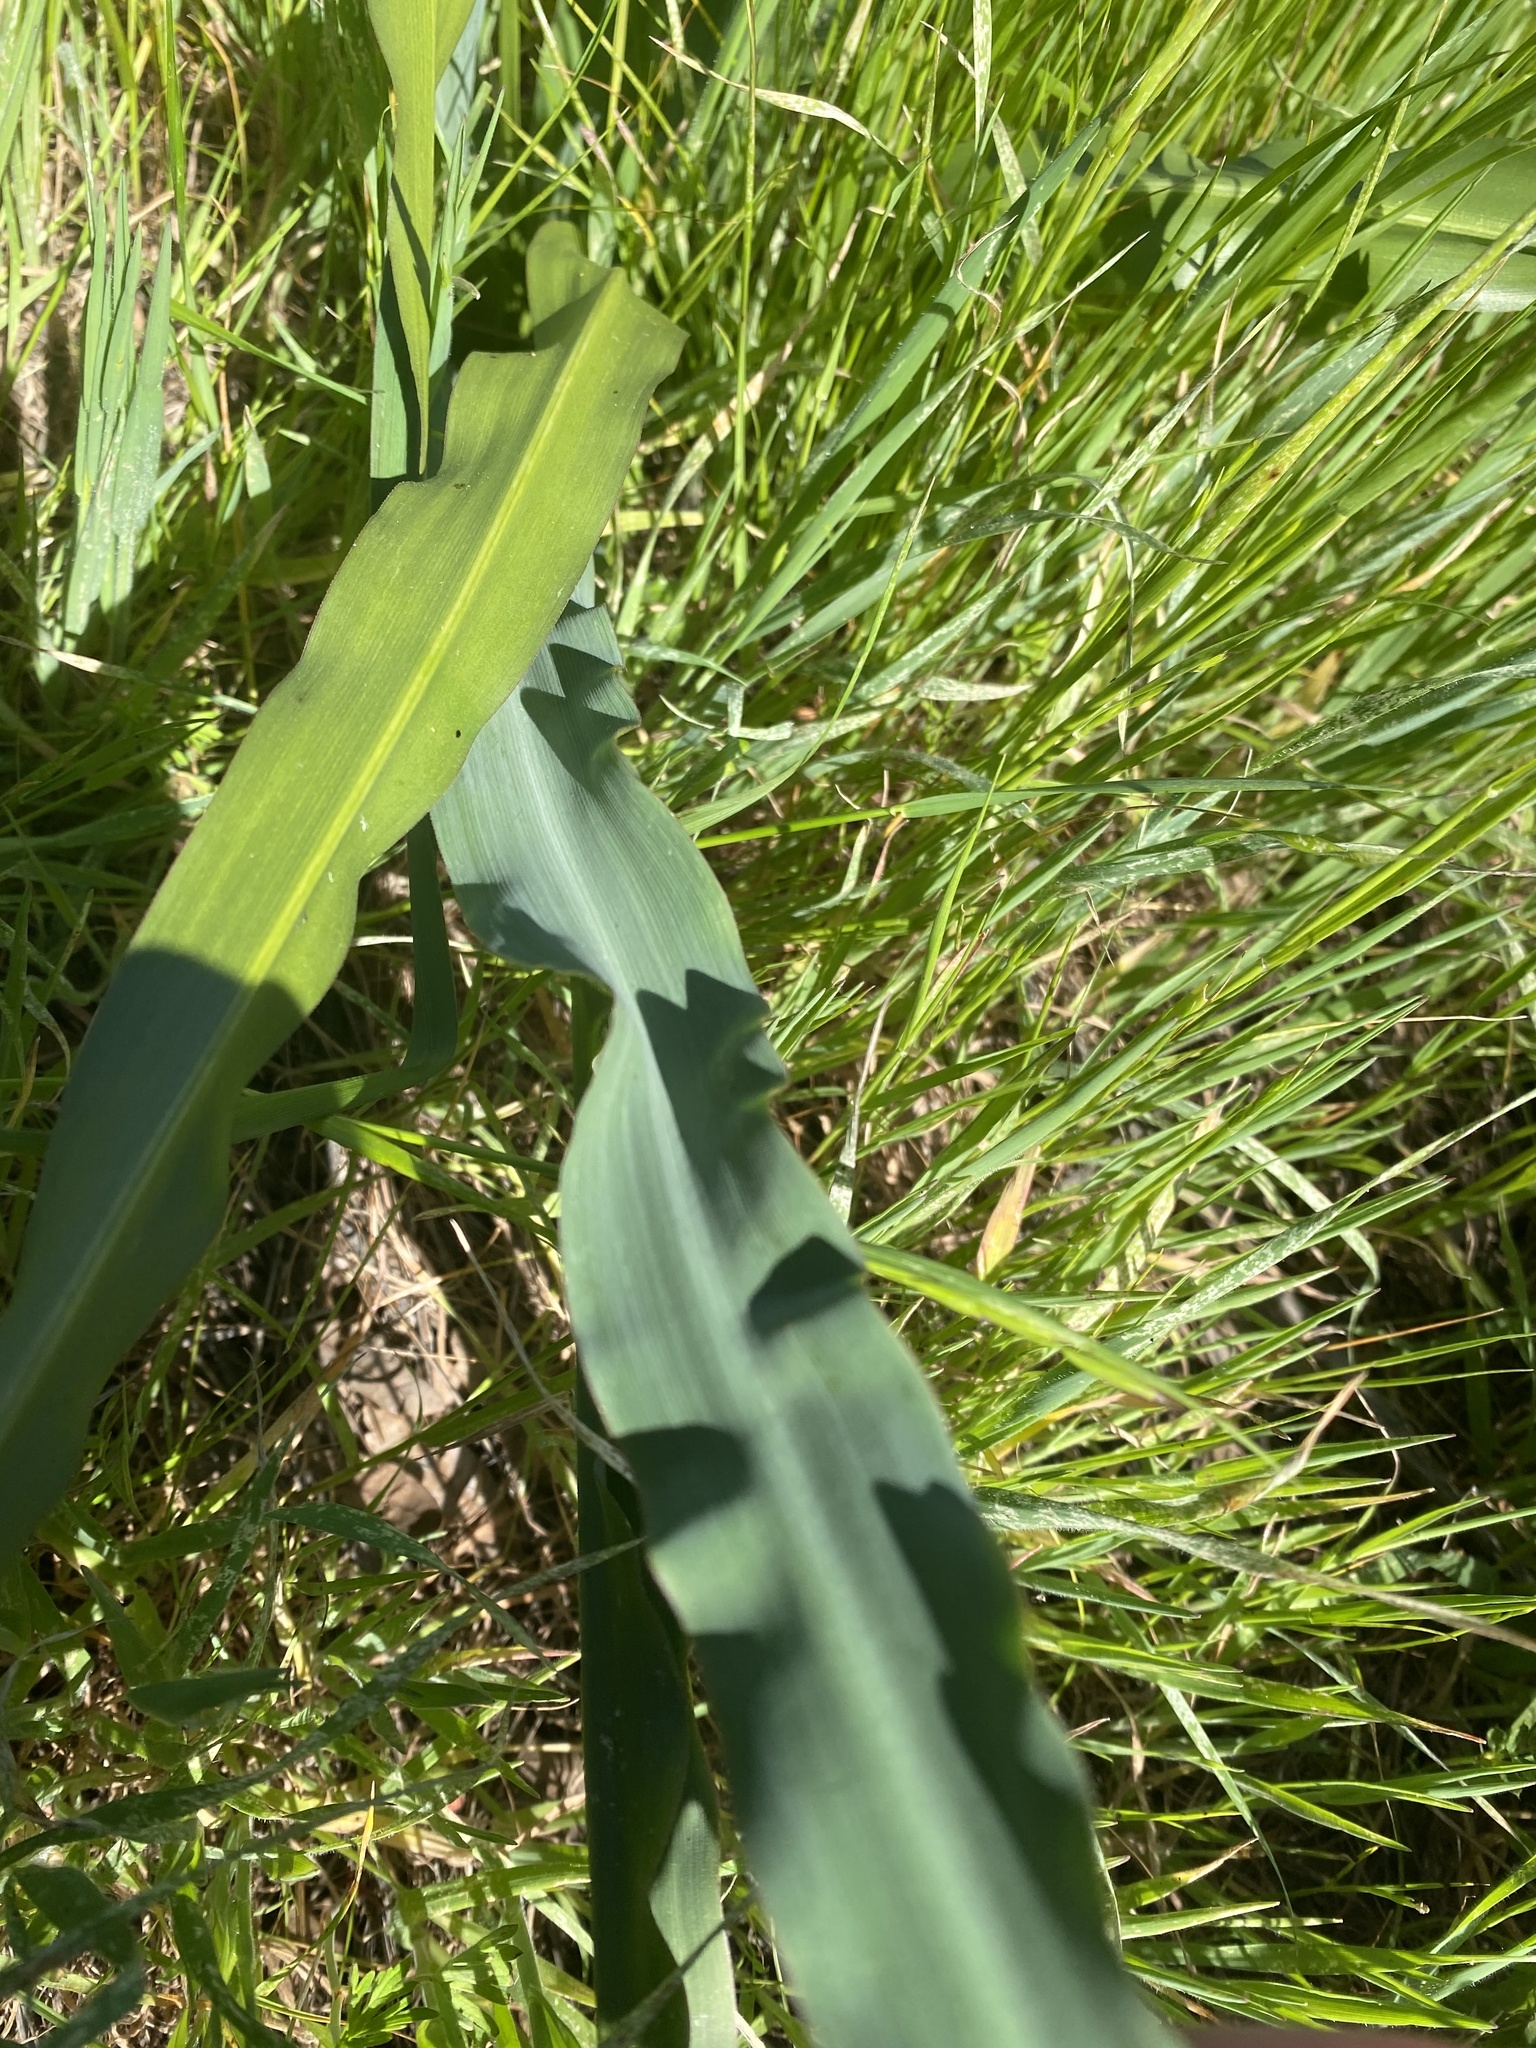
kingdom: Plantae
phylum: Tracheophyta
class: Liliopsida
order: Asparagales
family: Asparagaceae
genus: Chlorogalum
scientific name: Chlorogalum pomeridianum
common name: Amole
